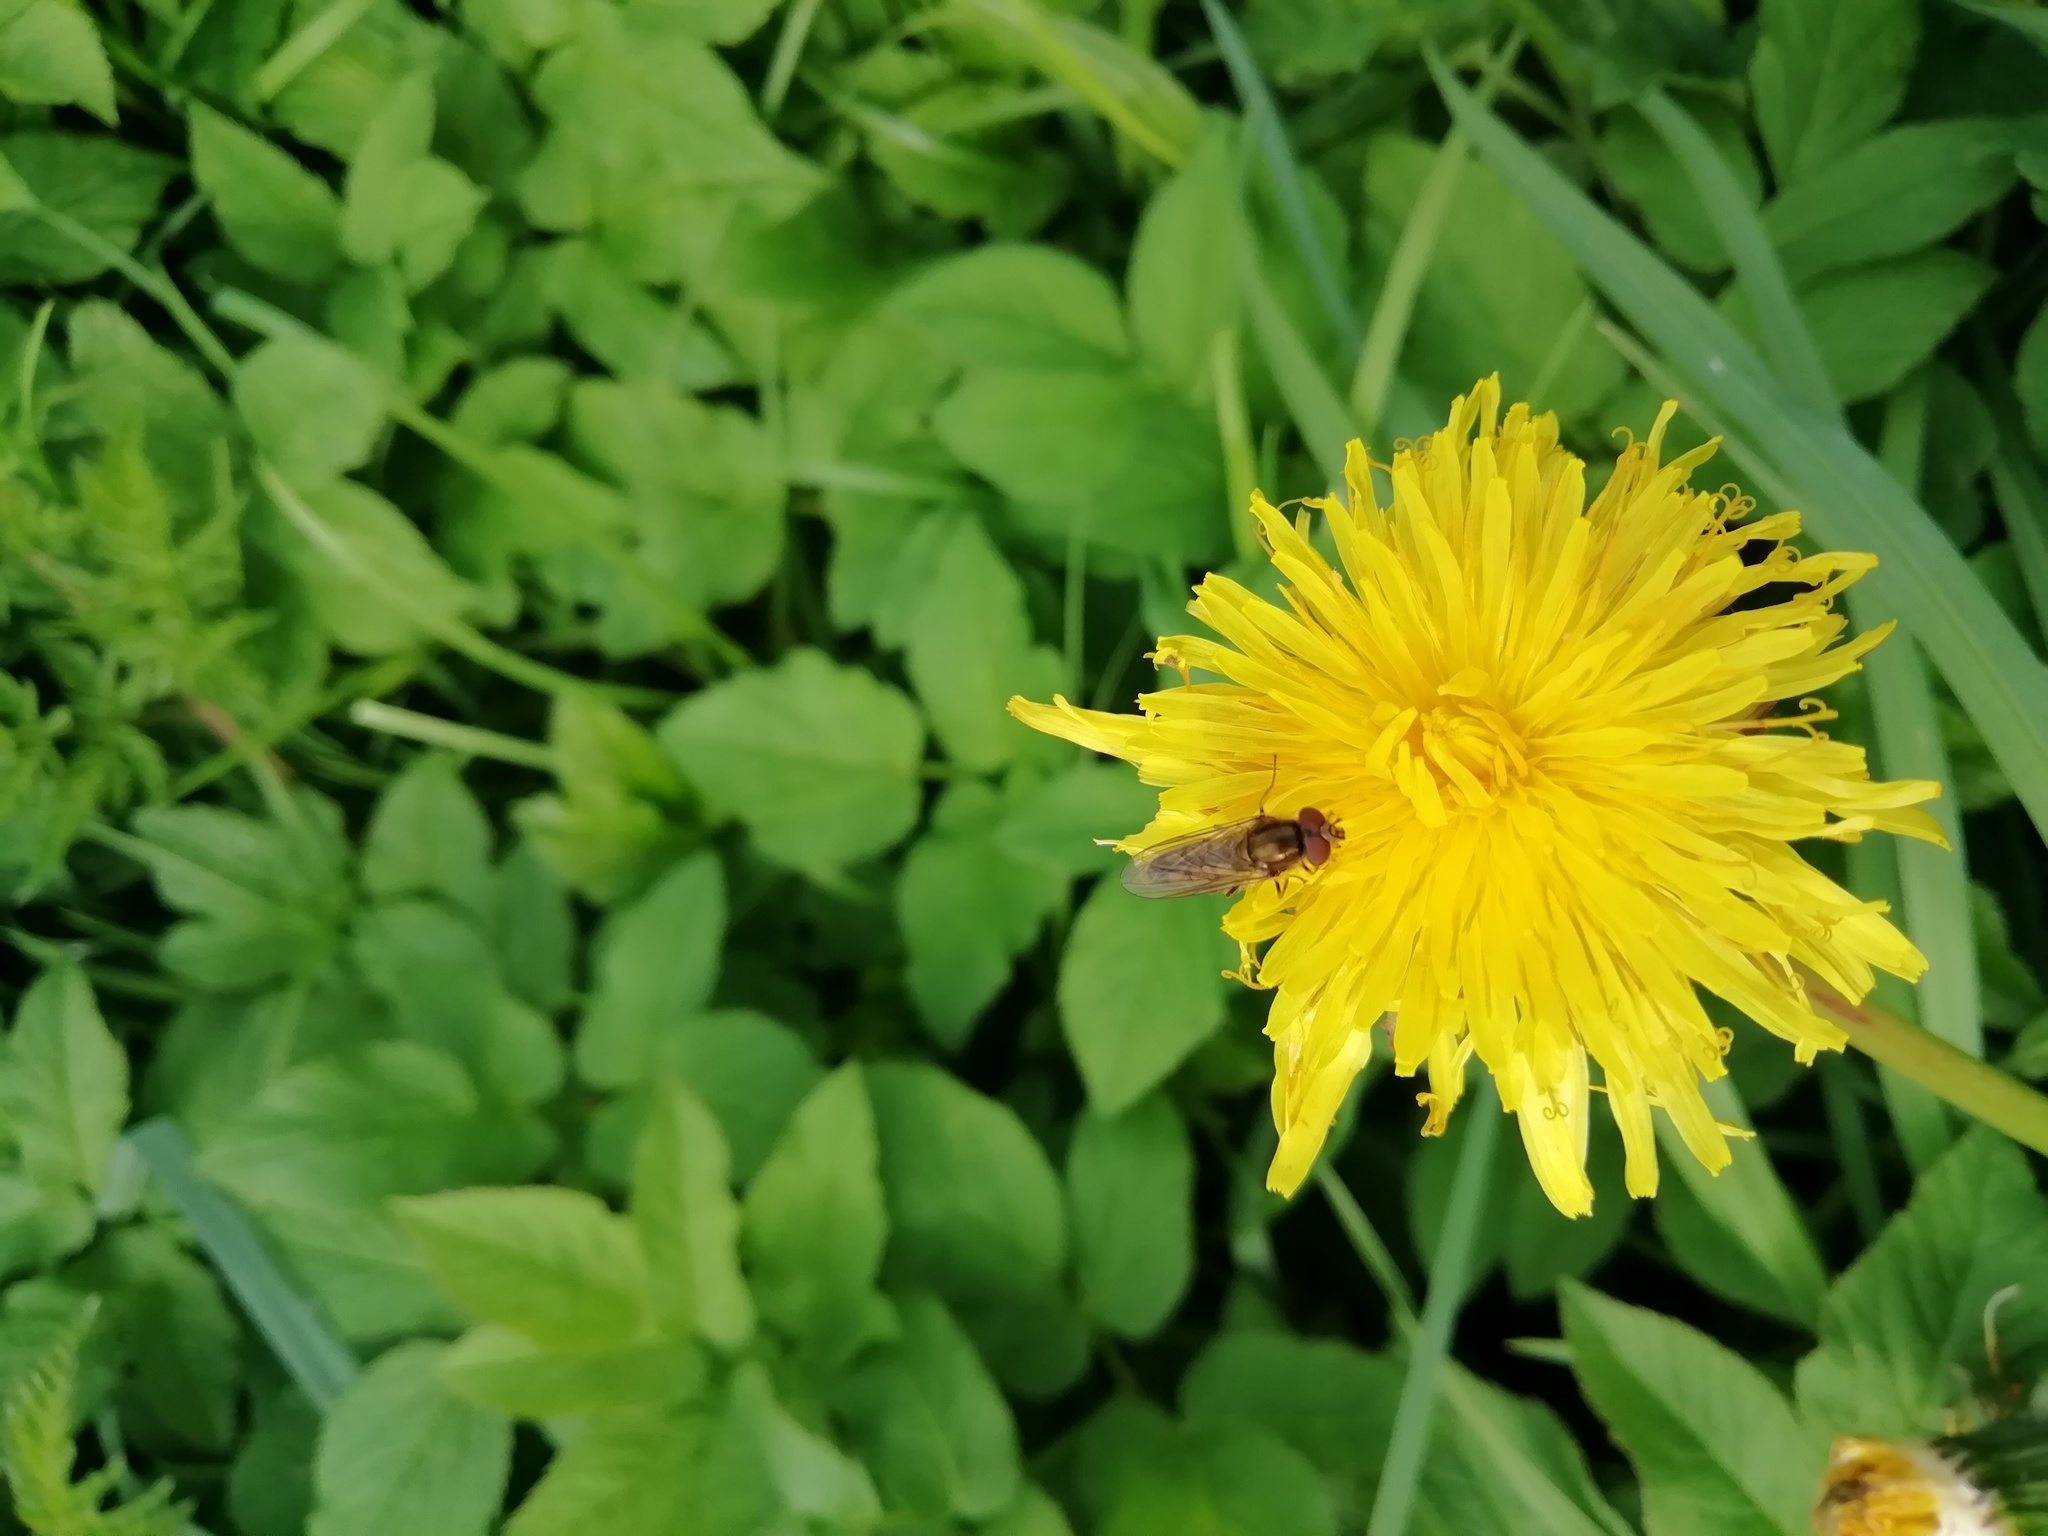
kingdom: Animalia
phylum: Arthropoda
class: Insecta
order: Diptera
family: Syrphidae
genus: Platycheirus
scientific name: Platycheirus manicatus
